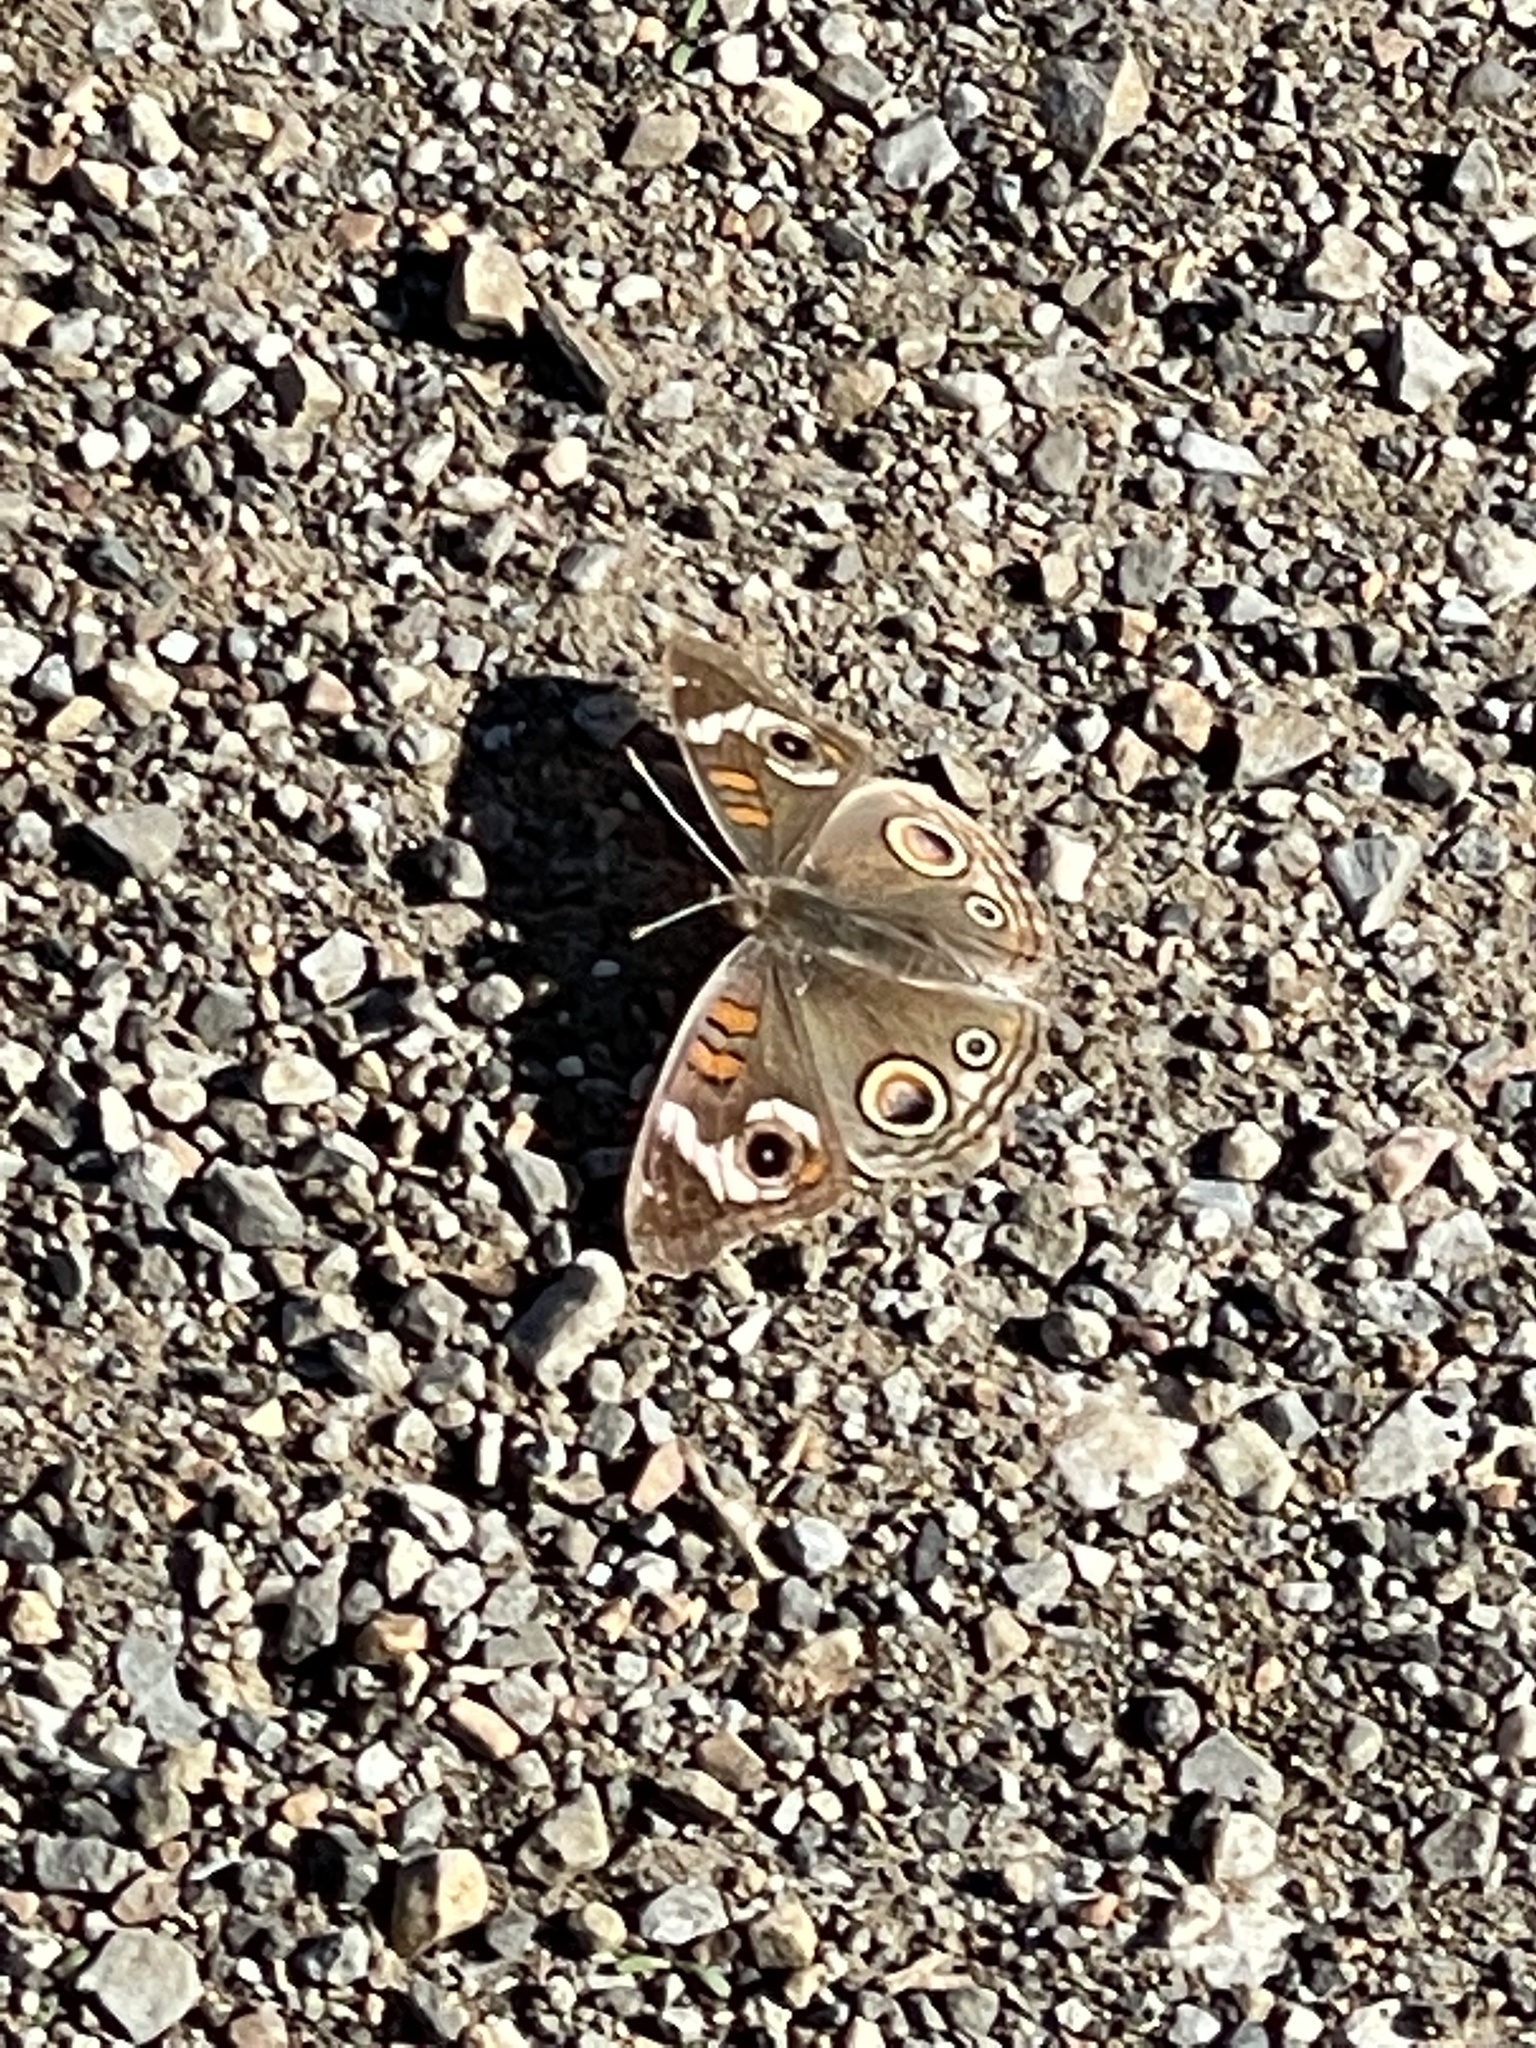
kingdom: Animalia
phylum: Arthropoda
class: Insecta
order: Lepidoptera
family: Nymphalidae
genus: Junonia
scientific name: Junonia grisea
